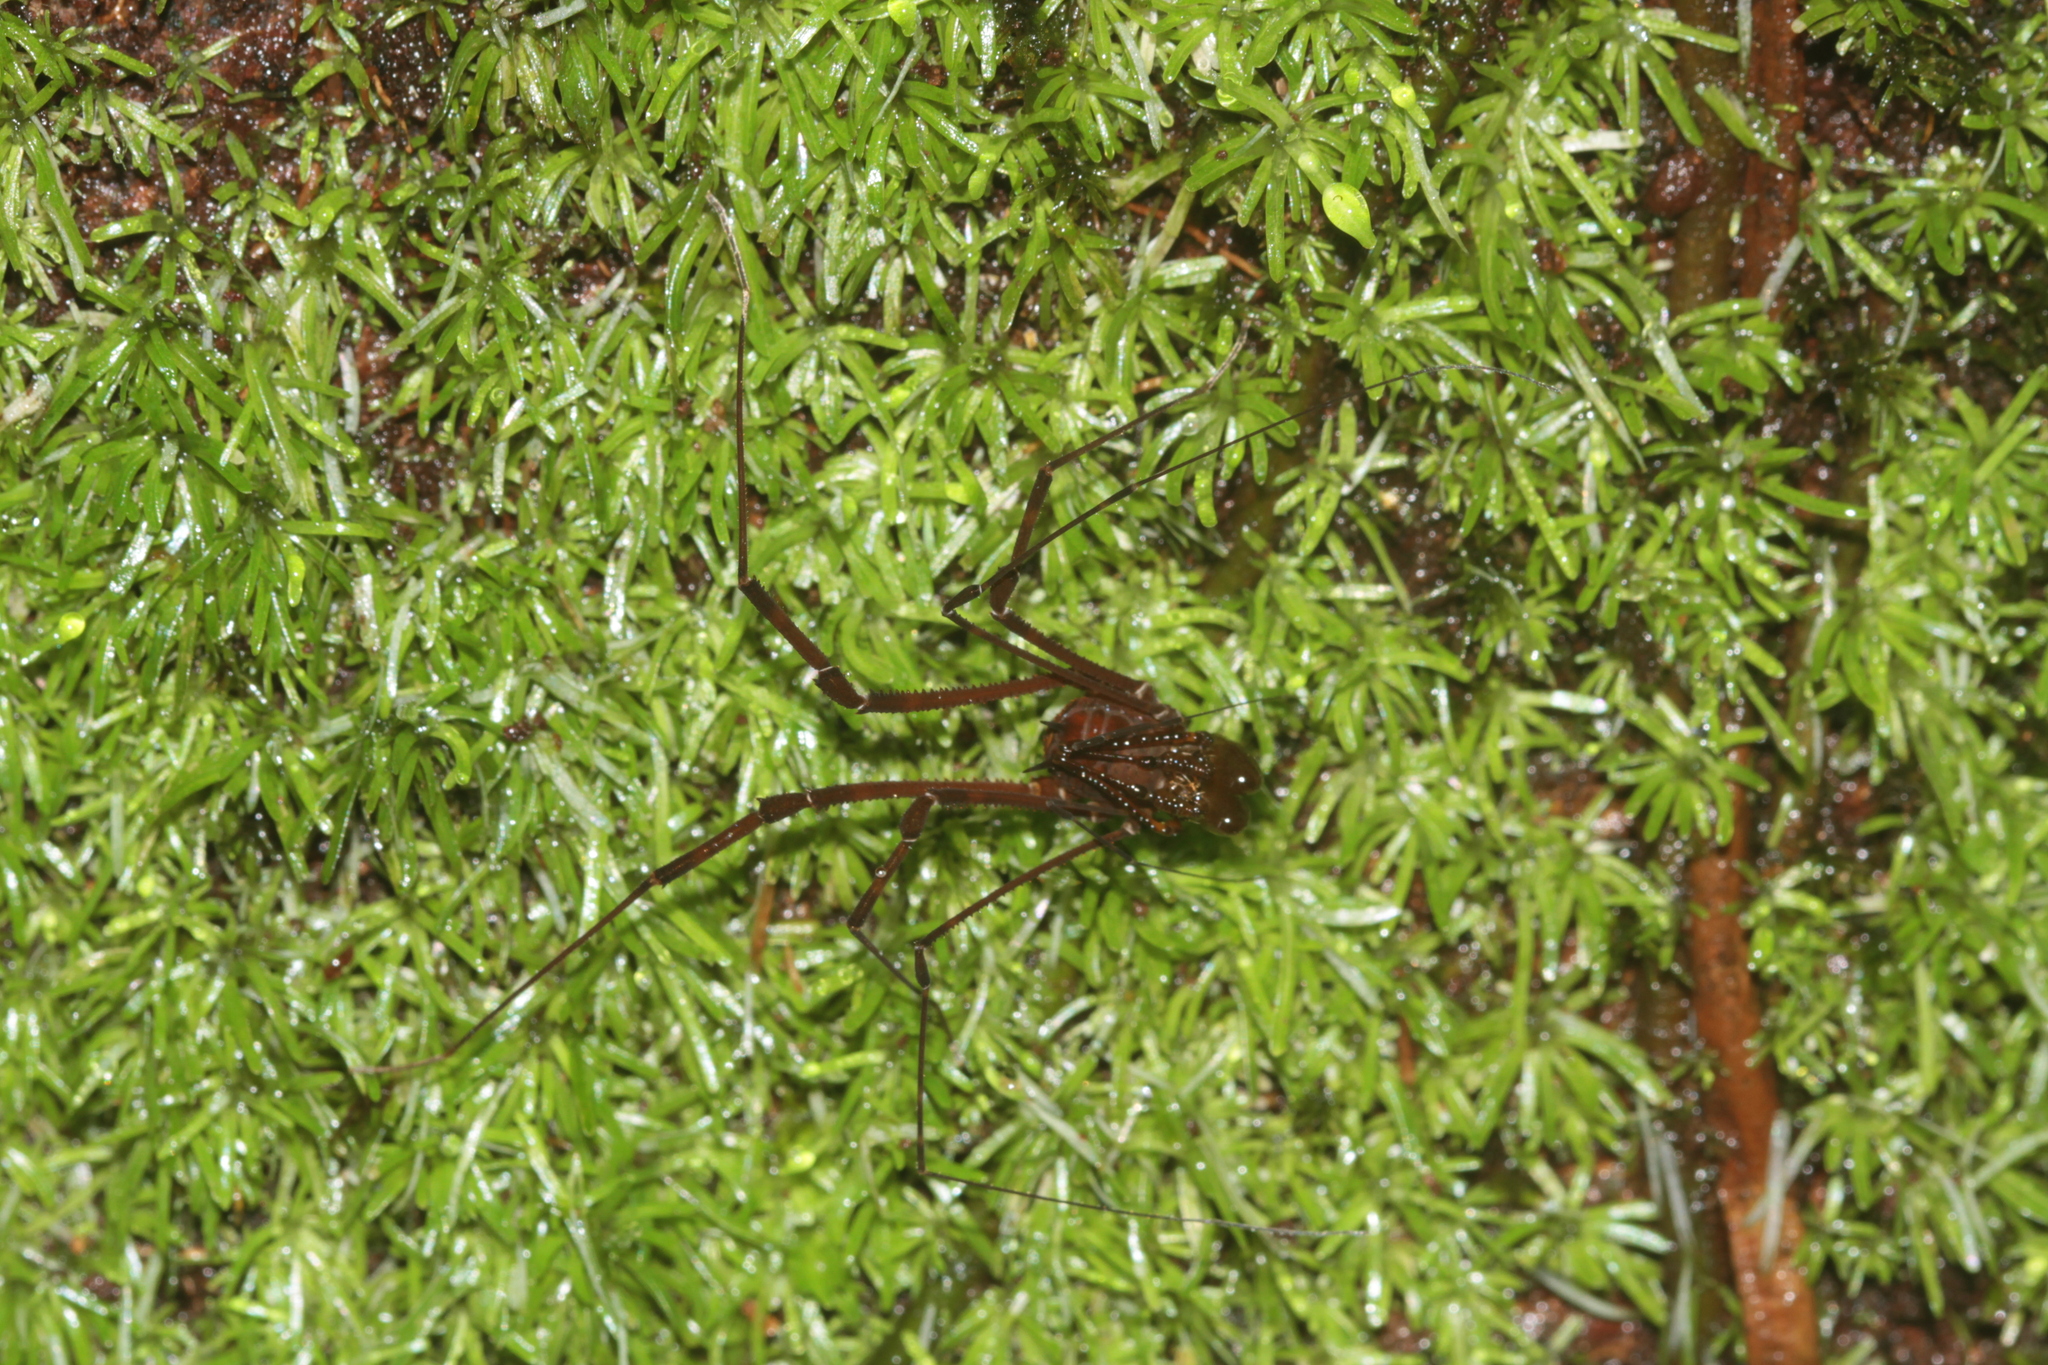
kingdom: Animalia
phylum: Arthropoda
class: Arachnida
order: Opiliones
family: Stygnidae
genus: Protimesius
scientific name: Protimesius gracilis
